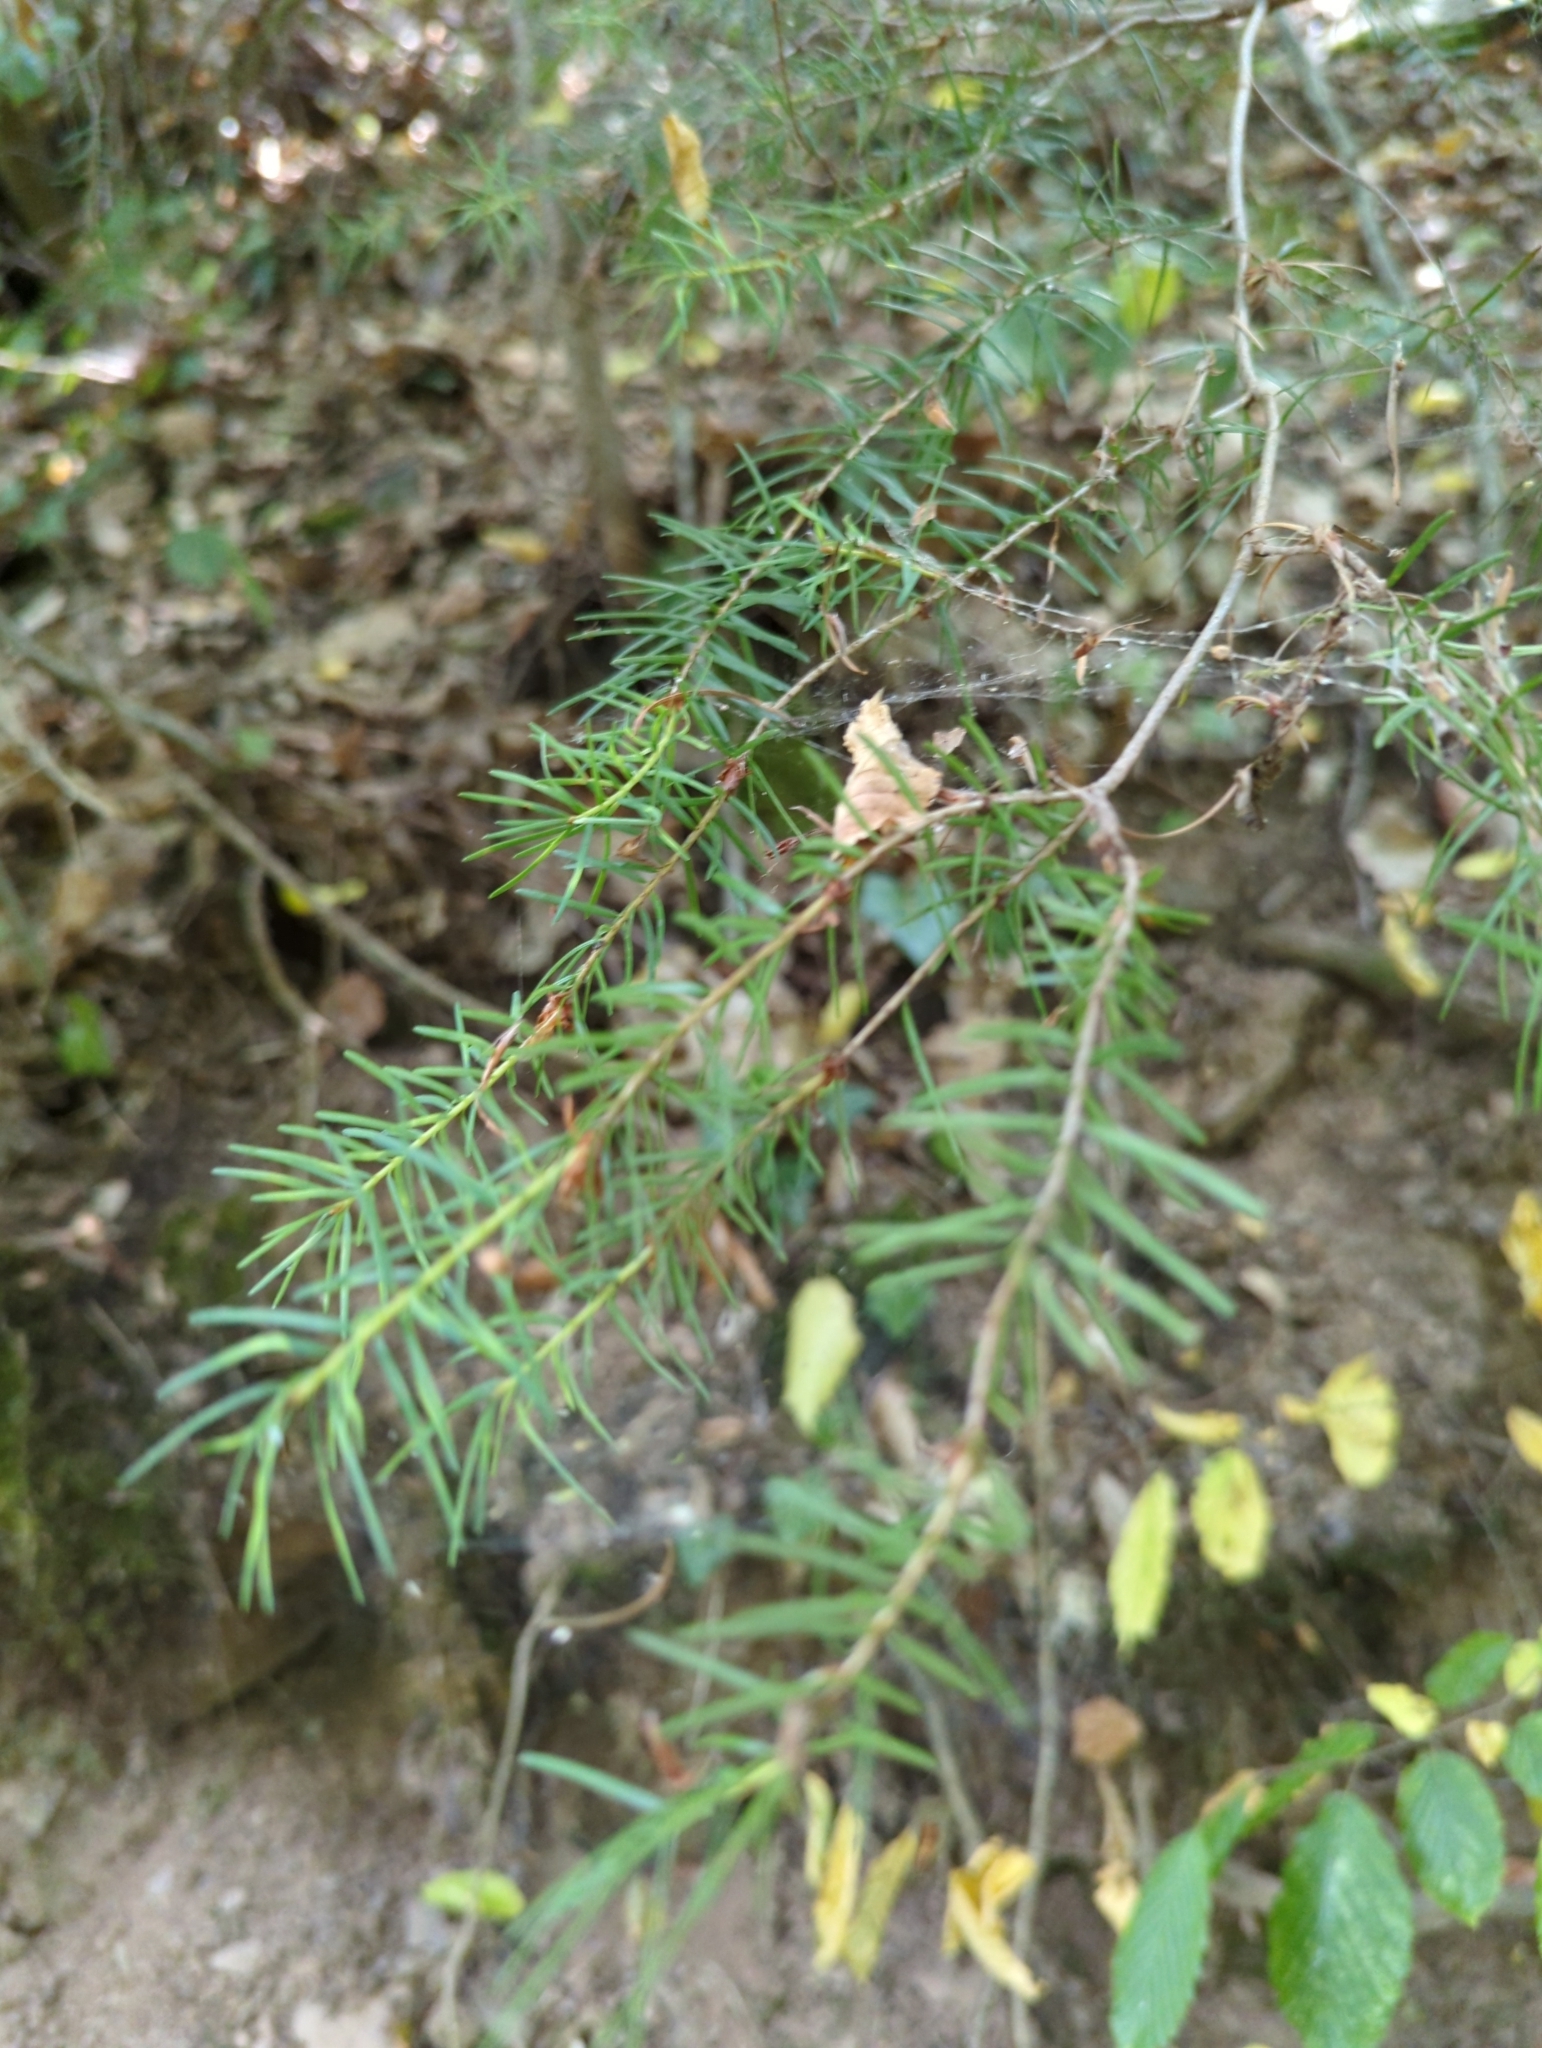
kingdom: Plantae
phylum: Tracheophyta
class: Pinopsida
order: Pinales
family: Pinaceae
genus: Pseudotsuga
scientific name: Pseudotsuga menziesii
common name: Douglas fir
